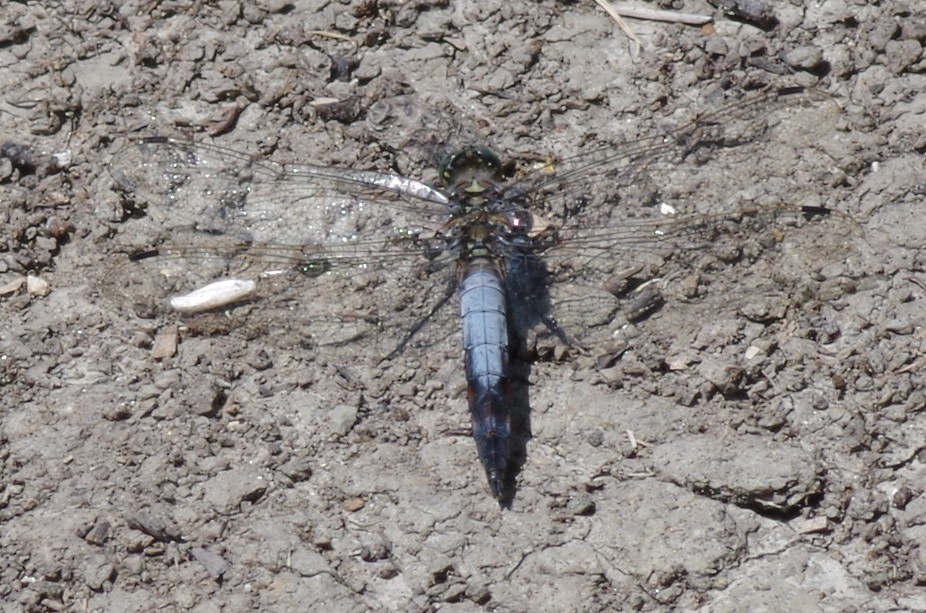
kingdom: Animalia
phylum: Arthropoda
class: Insecta
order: Odonata
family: Libellulidae
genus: Orthetrum
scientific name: Orthetrum cancellatum
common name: Black-tailed skimmer
